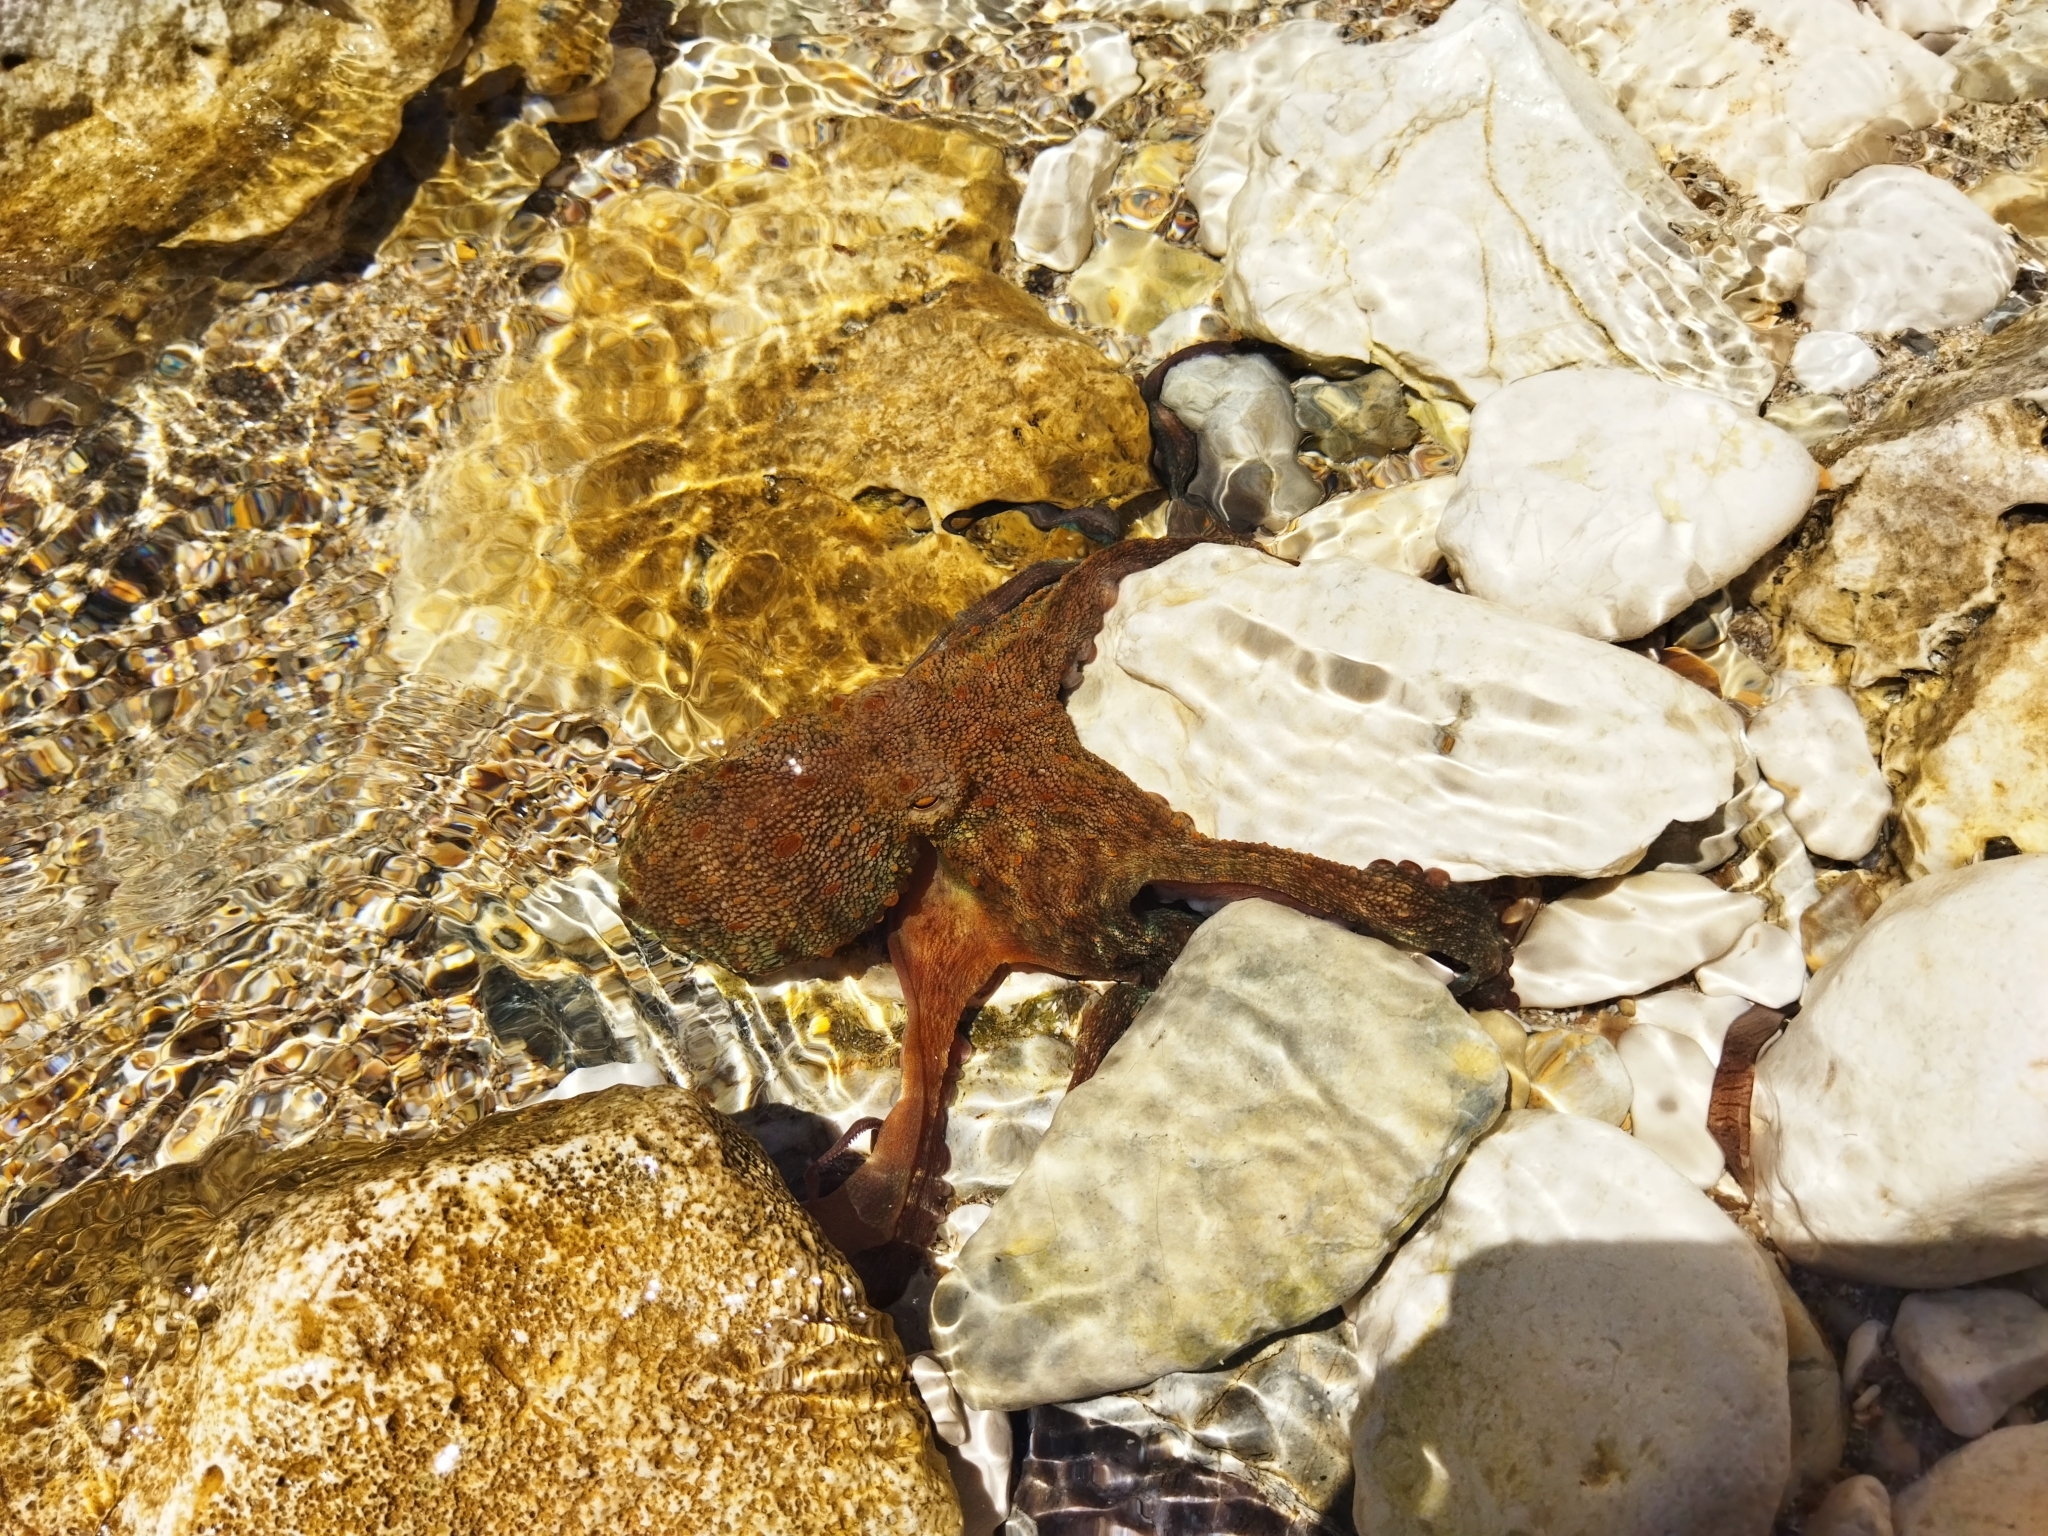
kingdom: Animalia
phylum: Mollusca
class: Cephalopoda
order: Octopoda
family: Octopodidae
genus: Octopus
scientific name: Octopus vulgaris
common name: Common octopus
